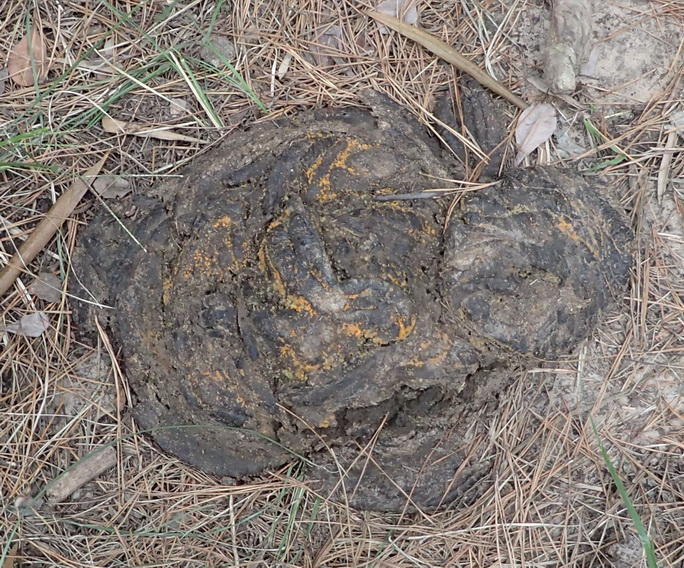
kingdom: Animalia
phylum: Chordata
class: Mammalia
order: Artiodactyla
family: Bovidae
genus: Bos
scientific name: Bos
